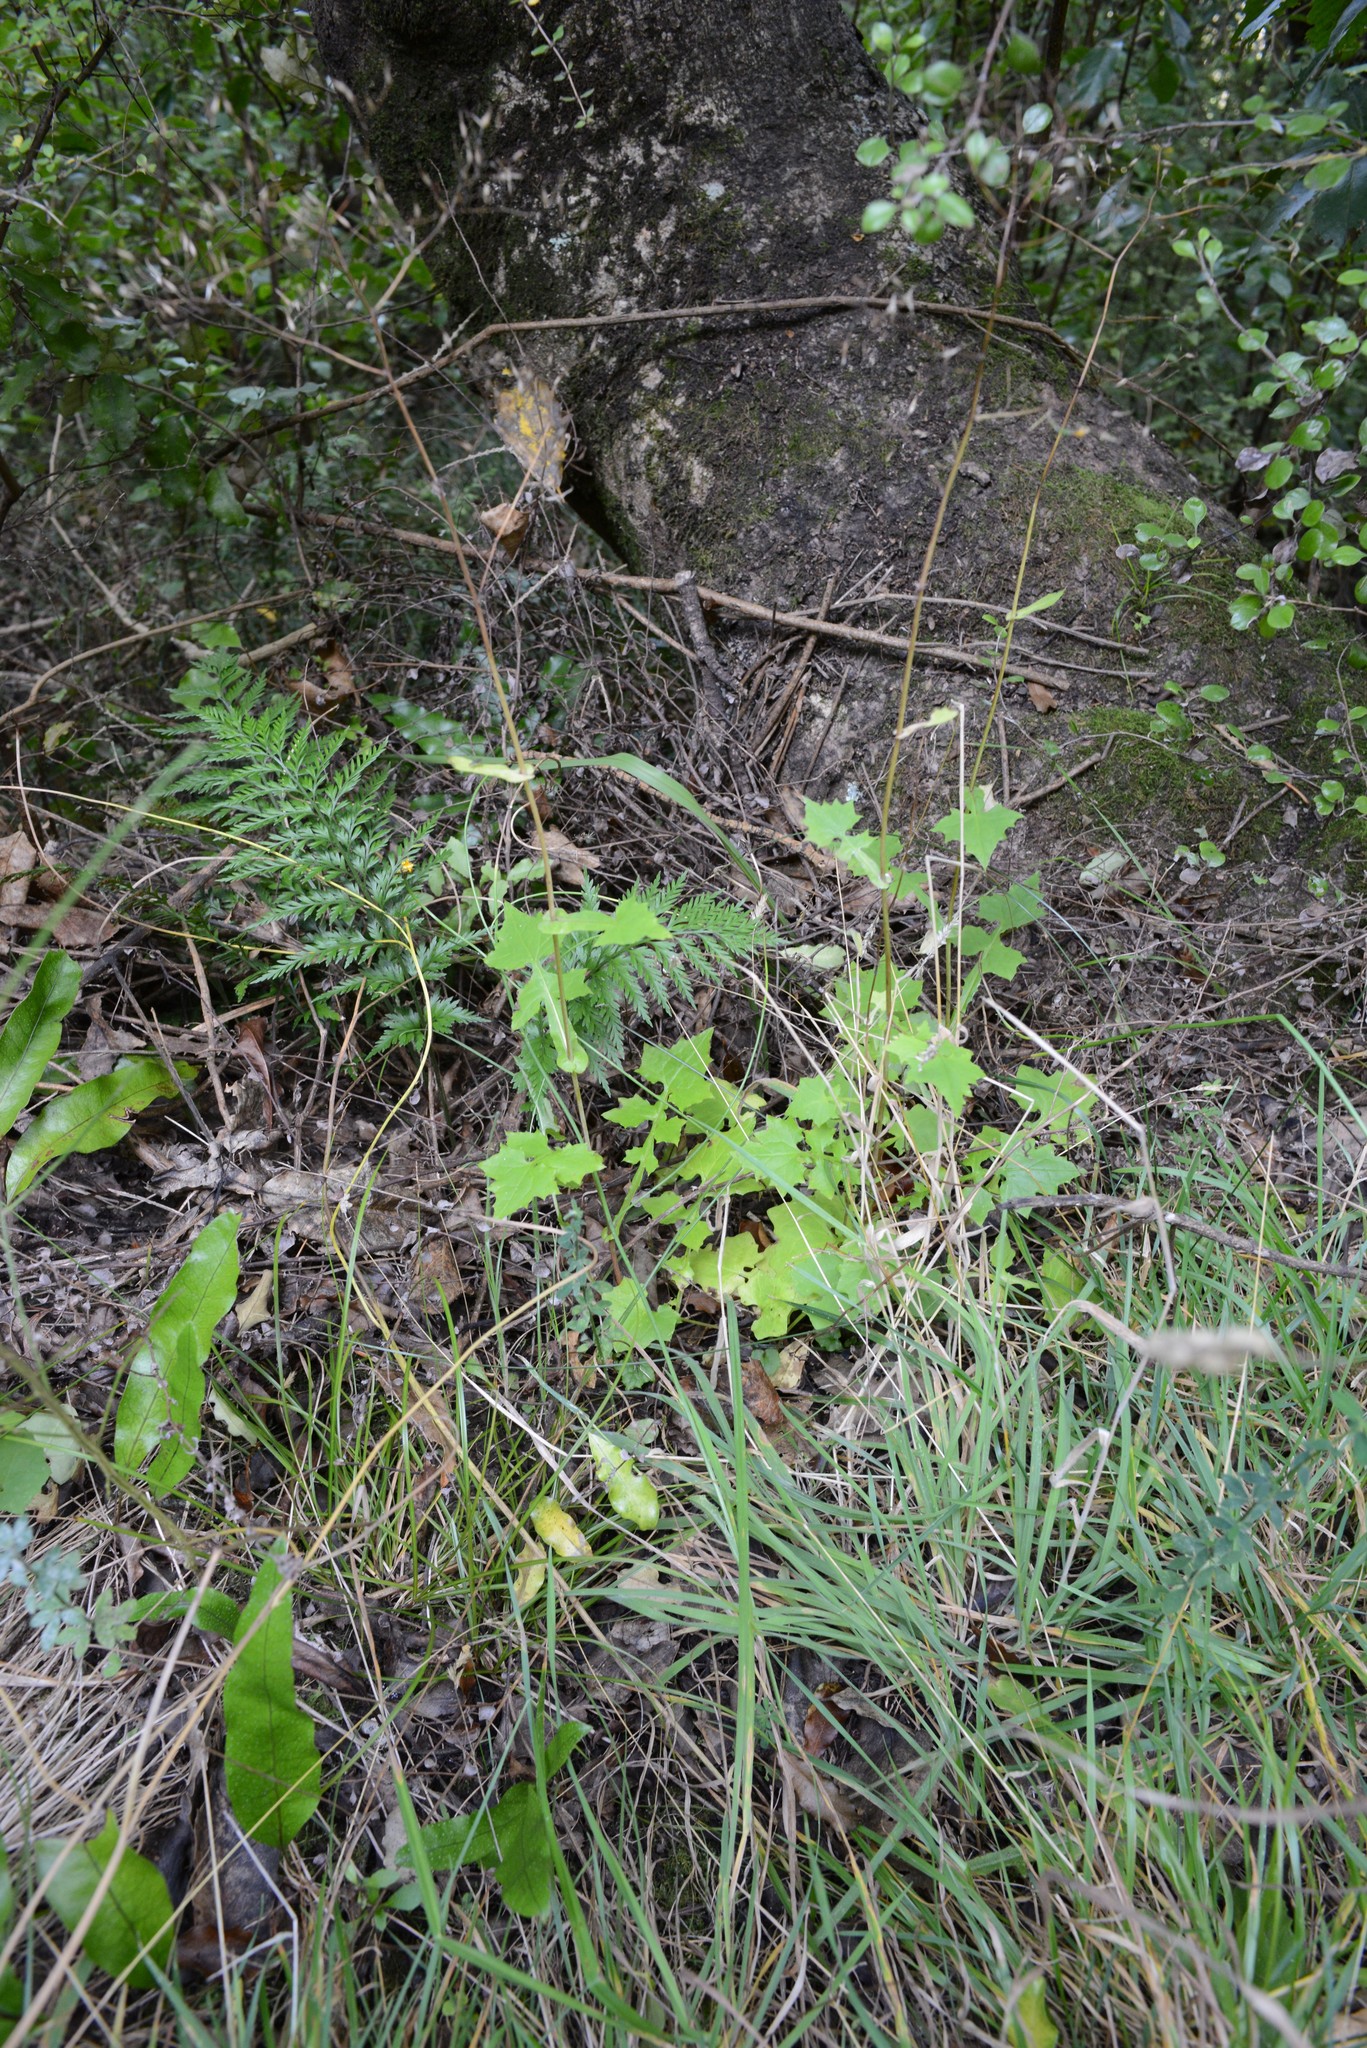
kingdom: Plantae
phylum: Tracheophyta
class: Magnoliopsida
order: Asterales
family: Asteraceae
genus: Mycelis
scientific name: Mycelis muralis
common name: Wall lettuce
